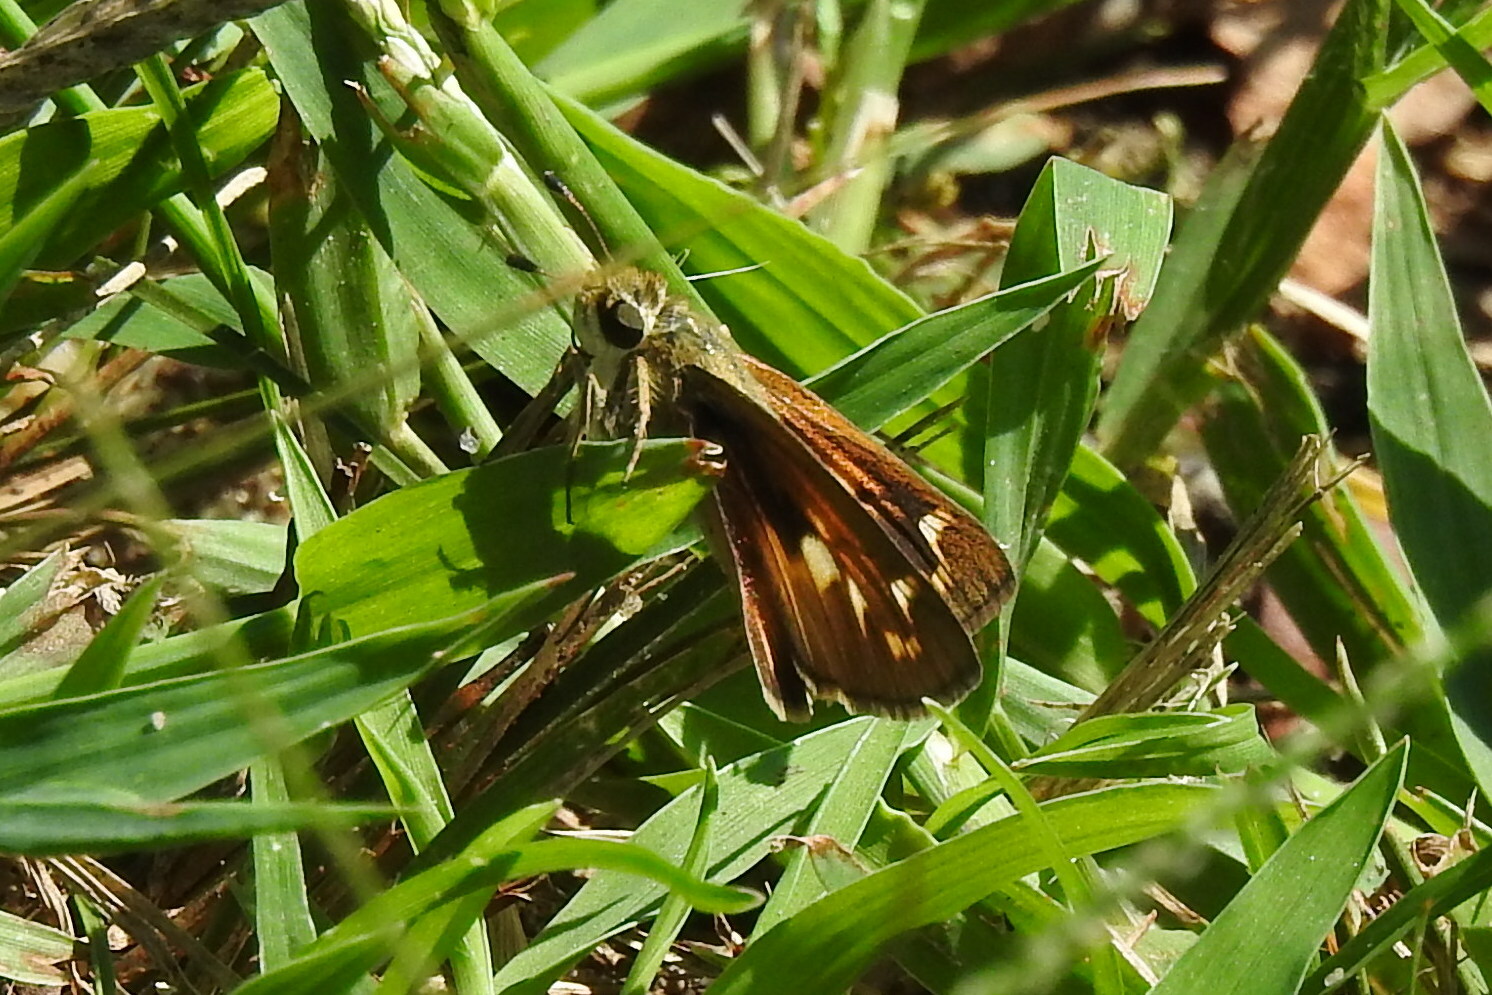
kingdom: Animalia
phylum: Arthropoda
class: Insecta
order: Lepidoptera
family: Hesperiidae
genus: Atalopedes
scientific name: Atalopedes
